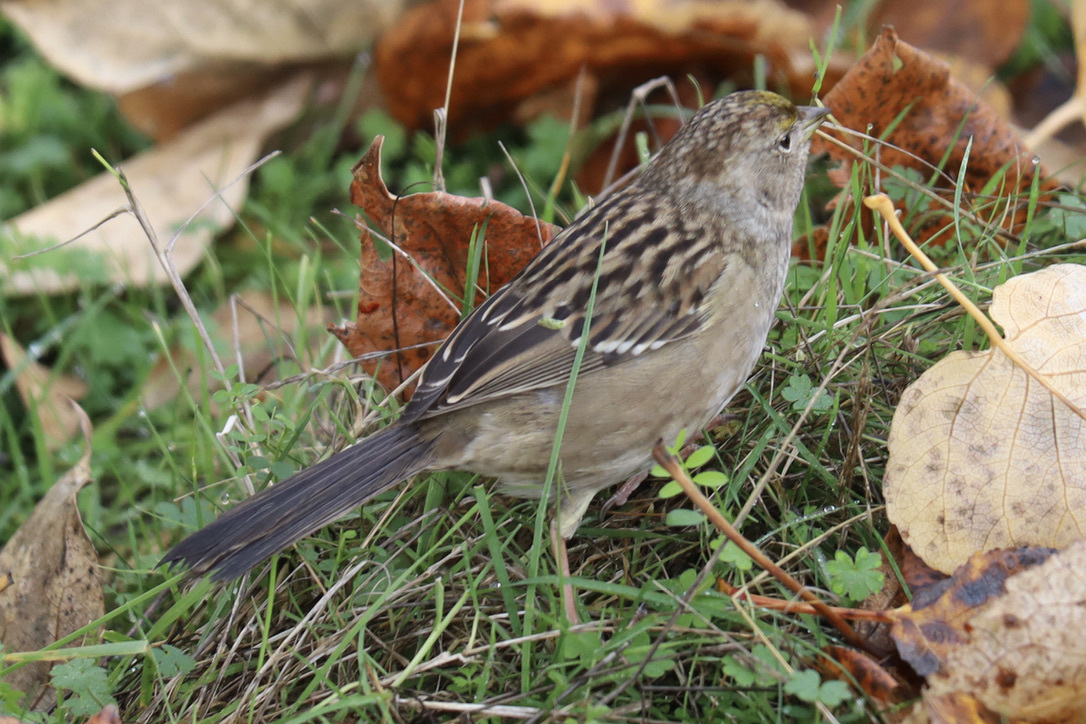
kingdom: Animalia
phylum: Chordata
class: Aves
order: Passeriformes
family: Passerellidae
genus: Zonotrichia
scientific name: Zonotrichia atricapilla
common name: Golden-crowned sparrow
